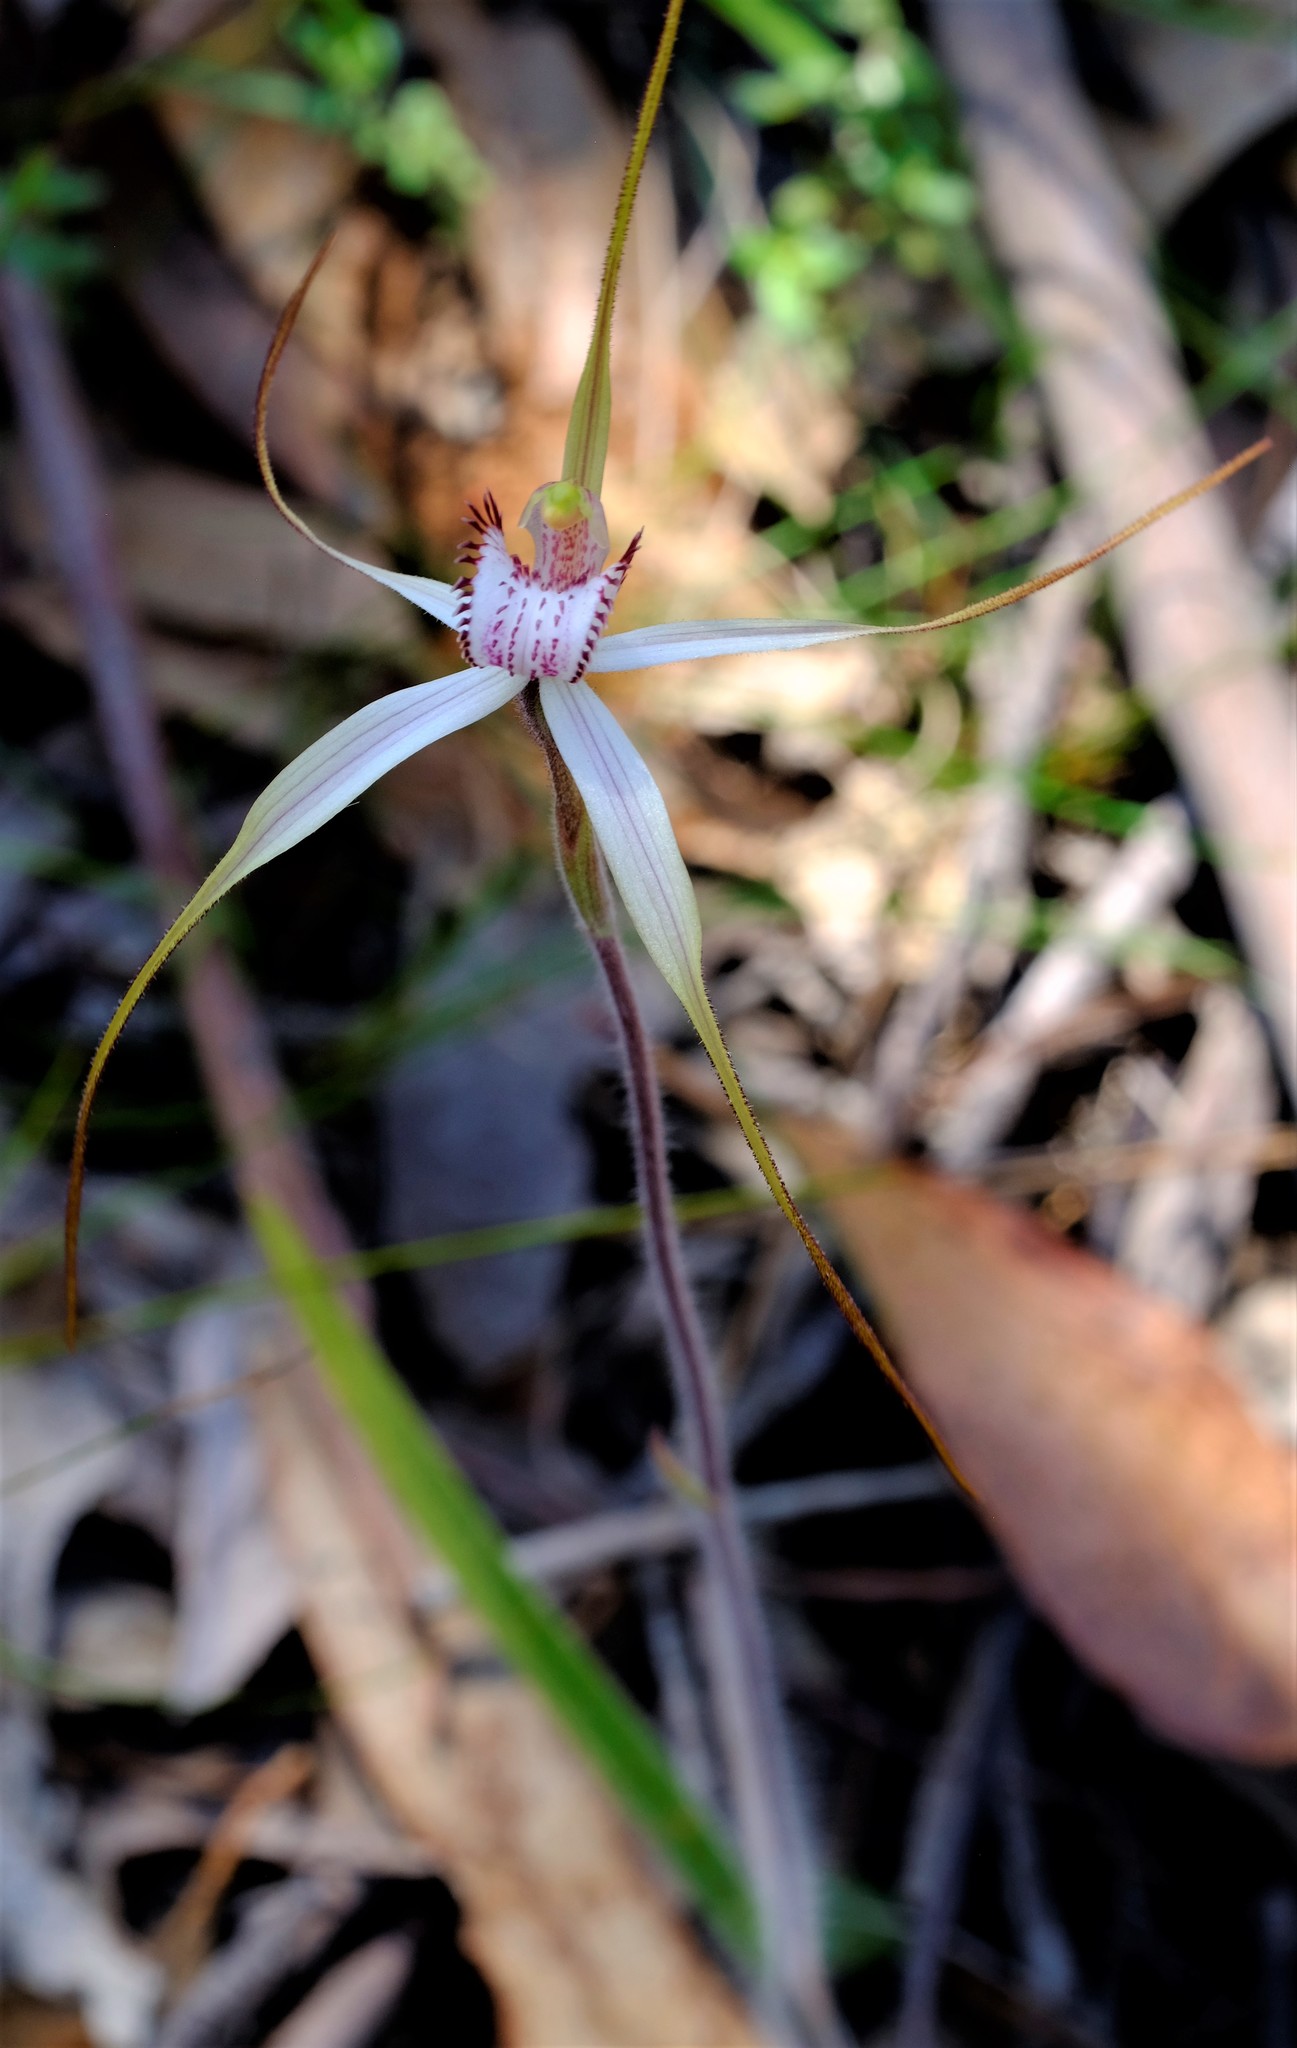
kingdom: Plantae
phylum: Tracheophyta
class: Liliopsida
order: Asparagales
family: Orchidaceae
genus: Caladenia
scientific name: Caladenia venusta
